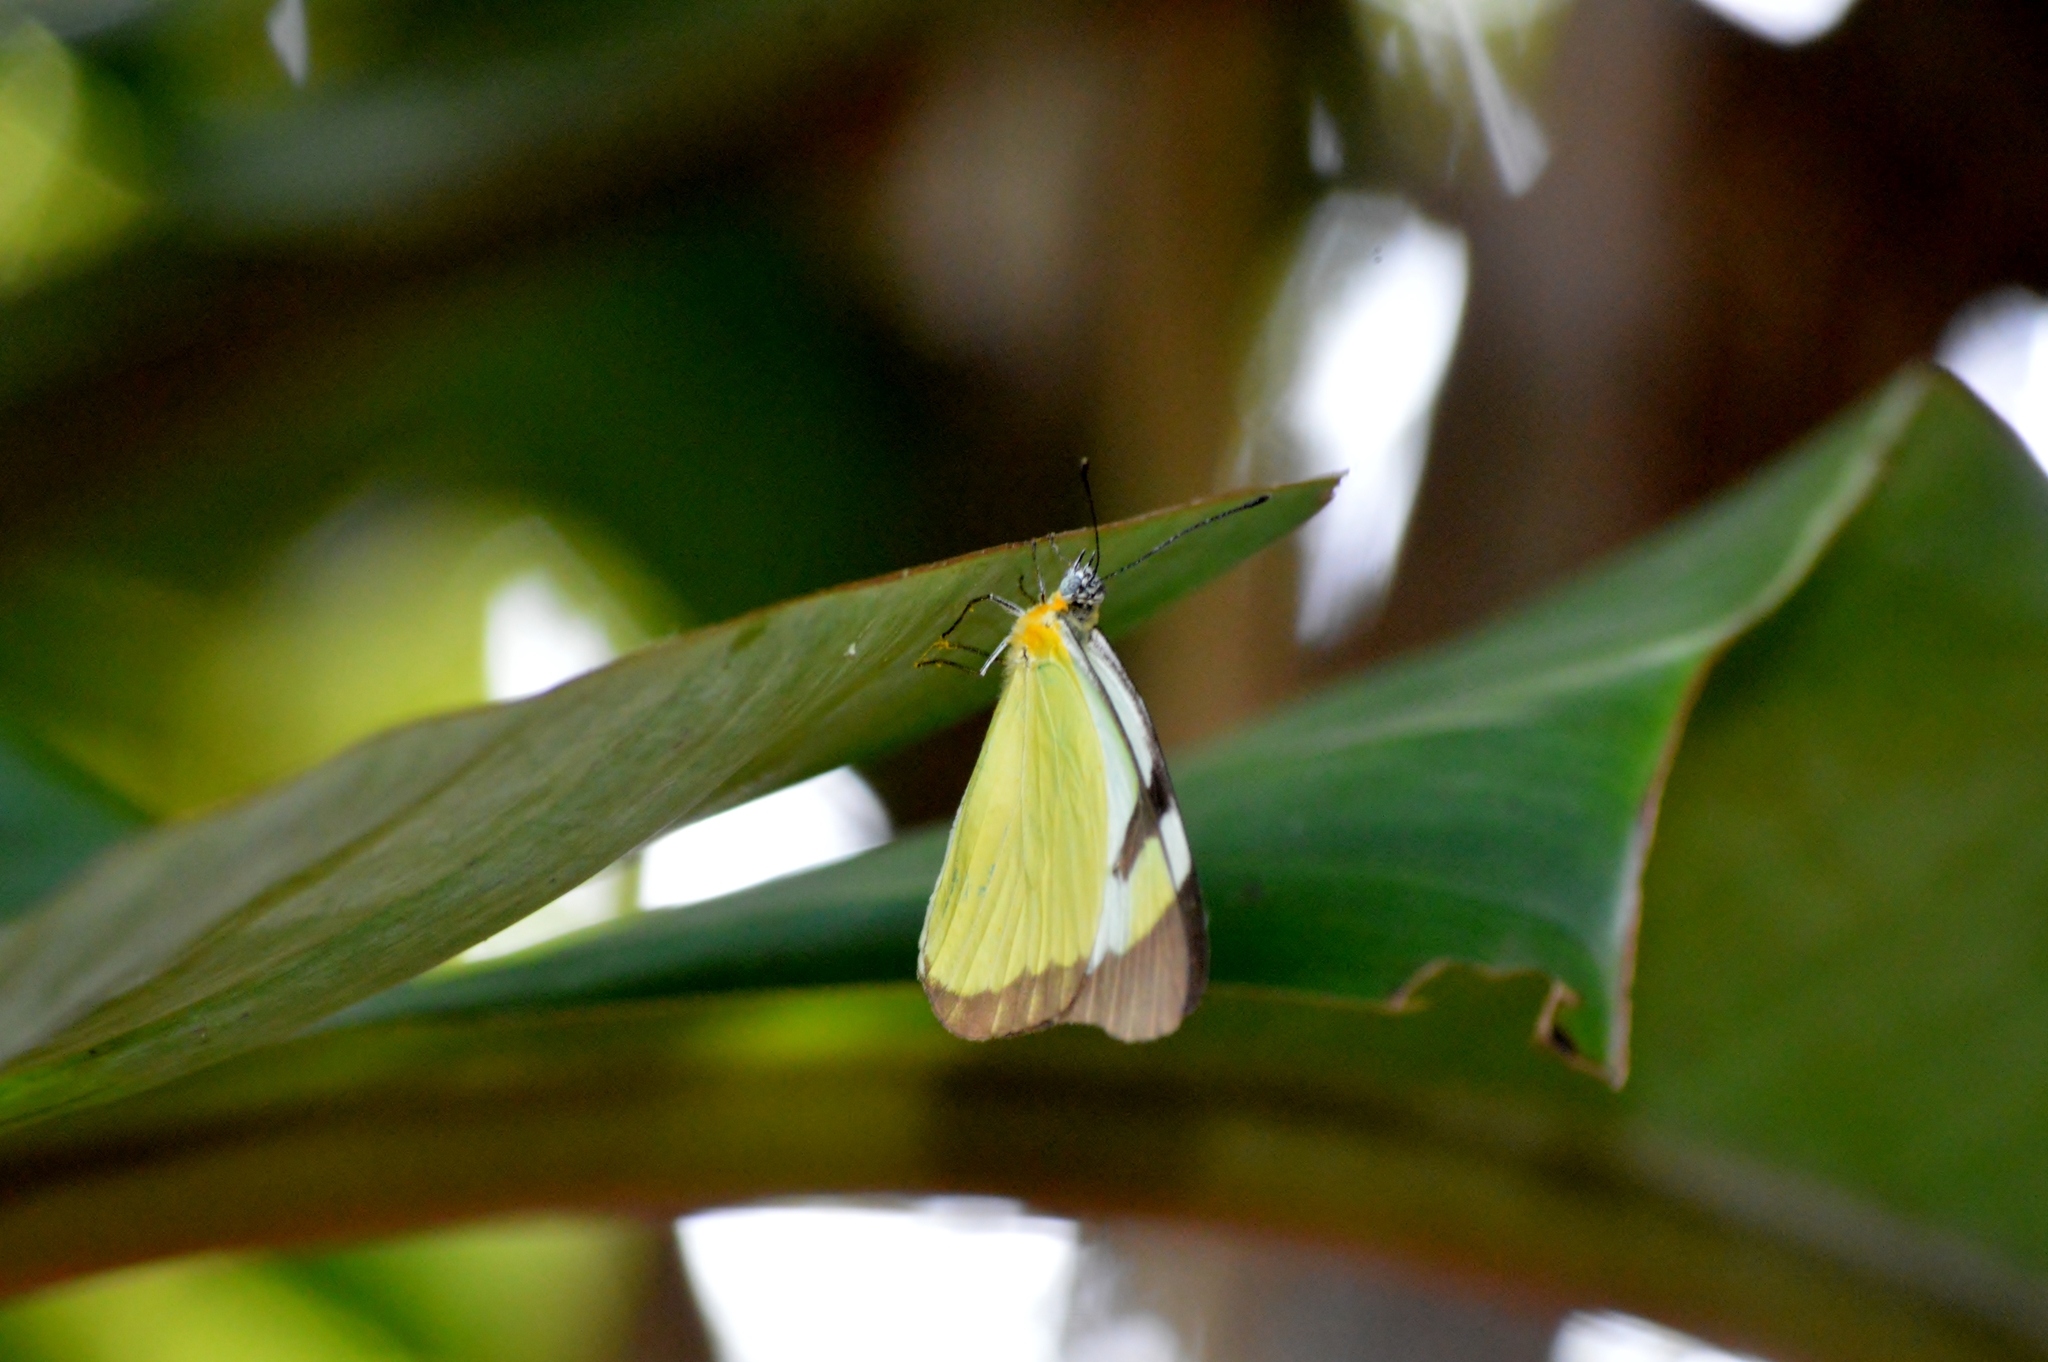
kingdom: Animalia
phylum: Arthropoda
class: Insecta
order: Lepidoptera
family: Pieridae
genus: Melete
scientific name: Melete lycimnia
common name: Common melwhite
